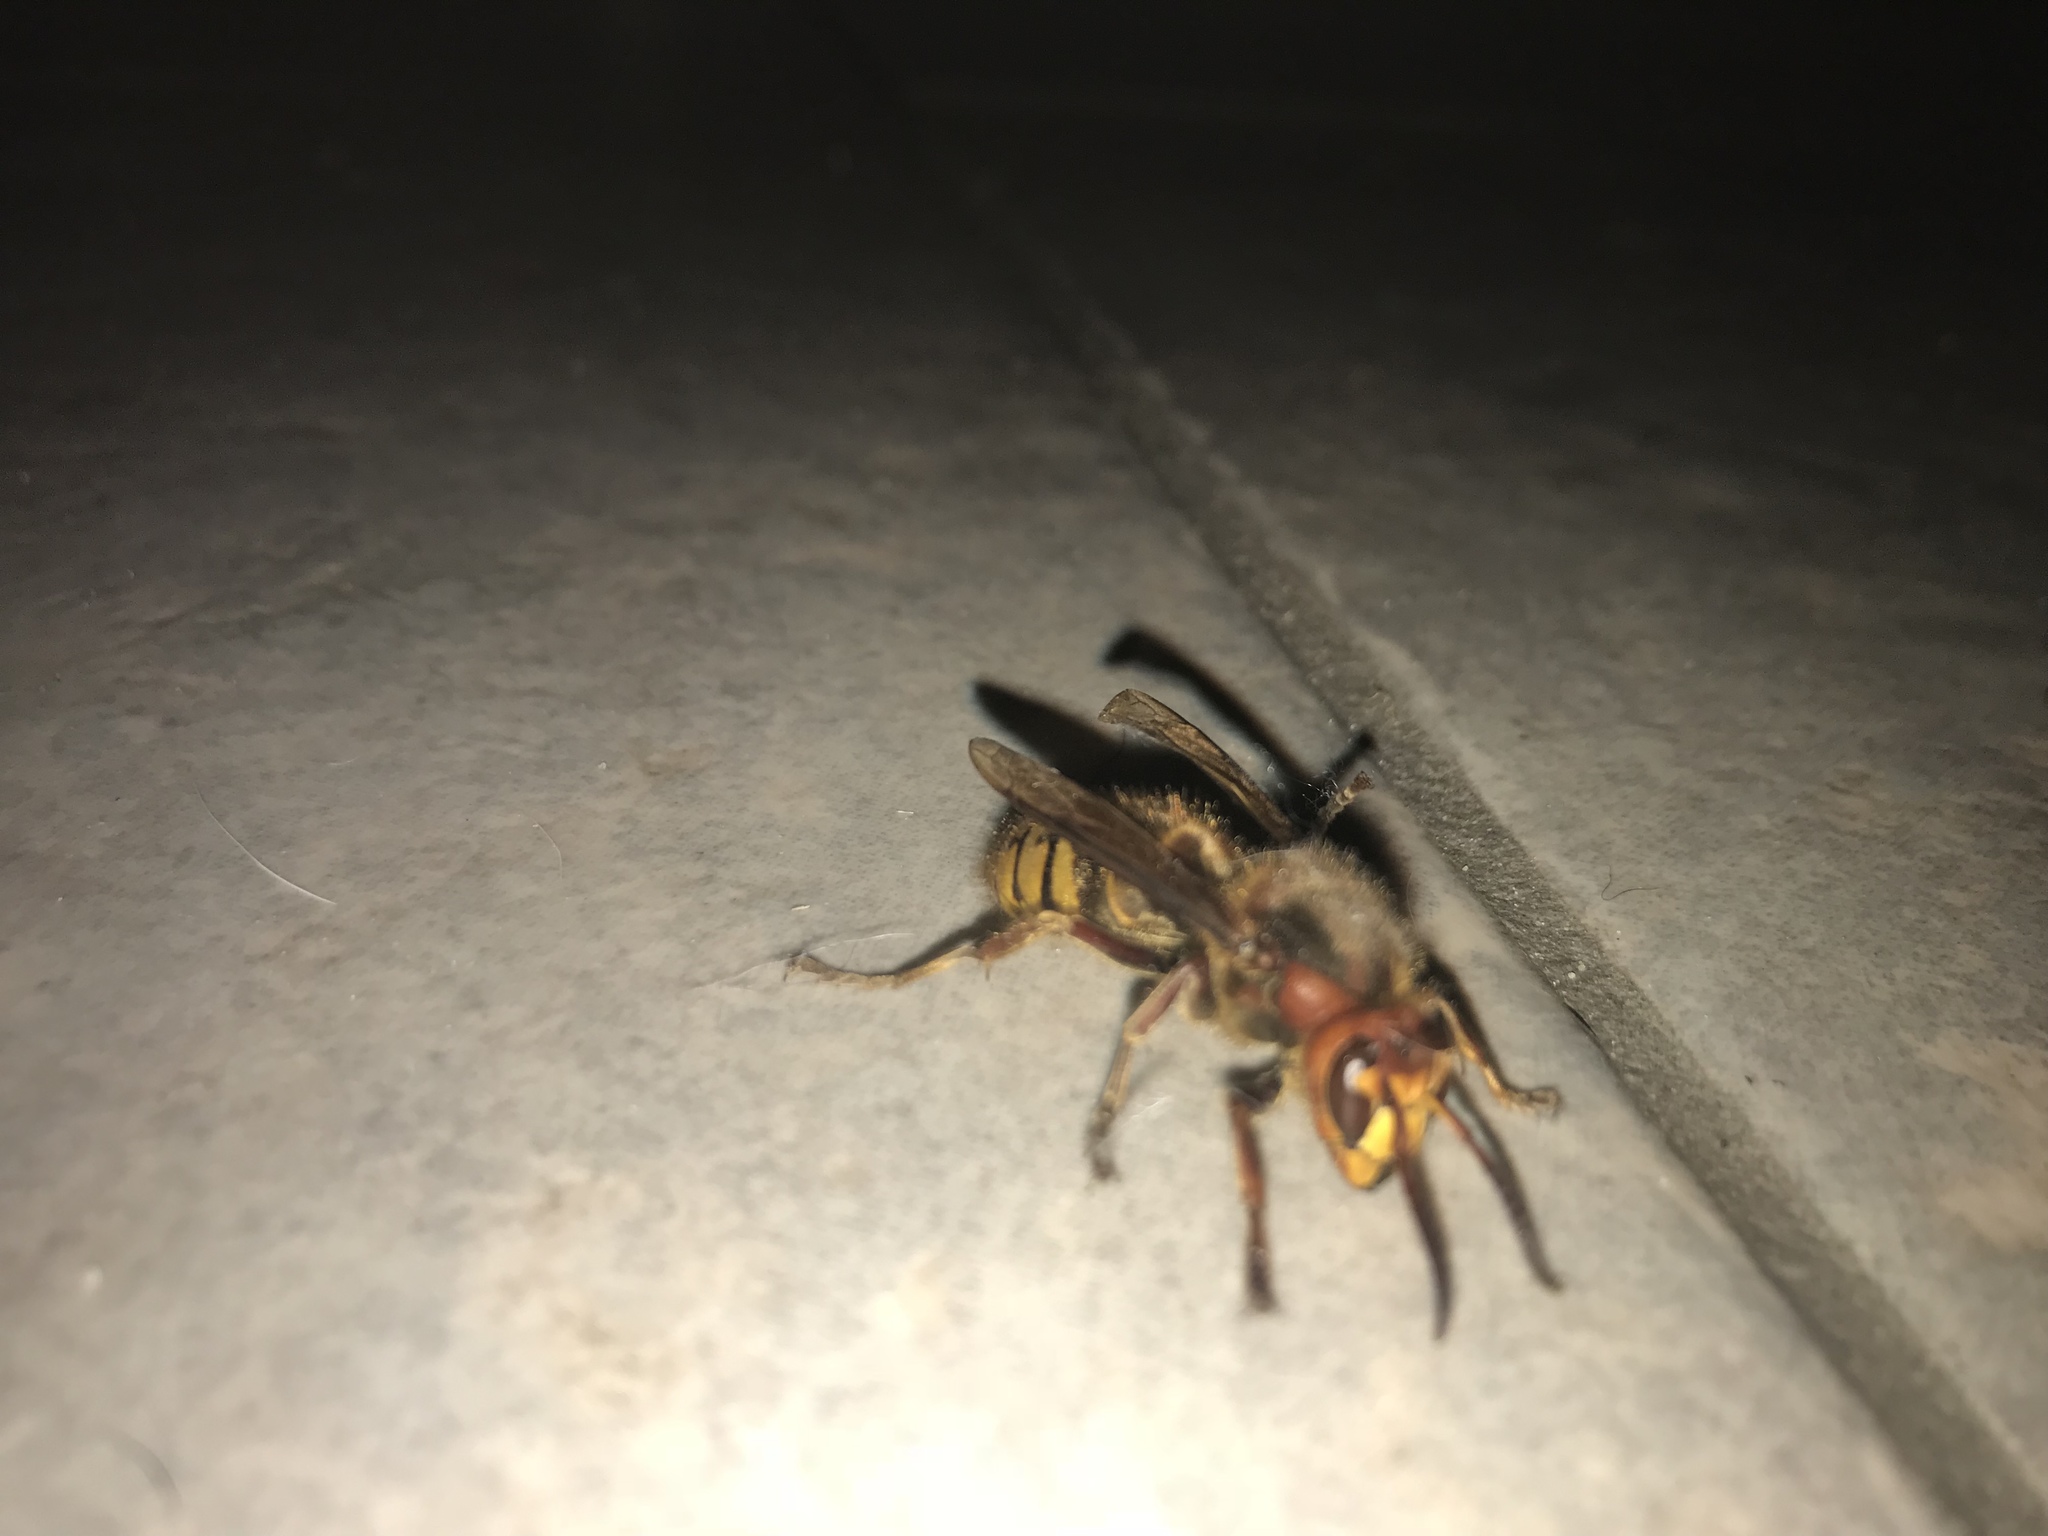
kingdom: Animalia
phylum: Arthropoda
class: Insecta
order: Hymenoptera
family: Vespidae
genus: Vespa
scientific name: Vespa crabro
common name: Hornet
